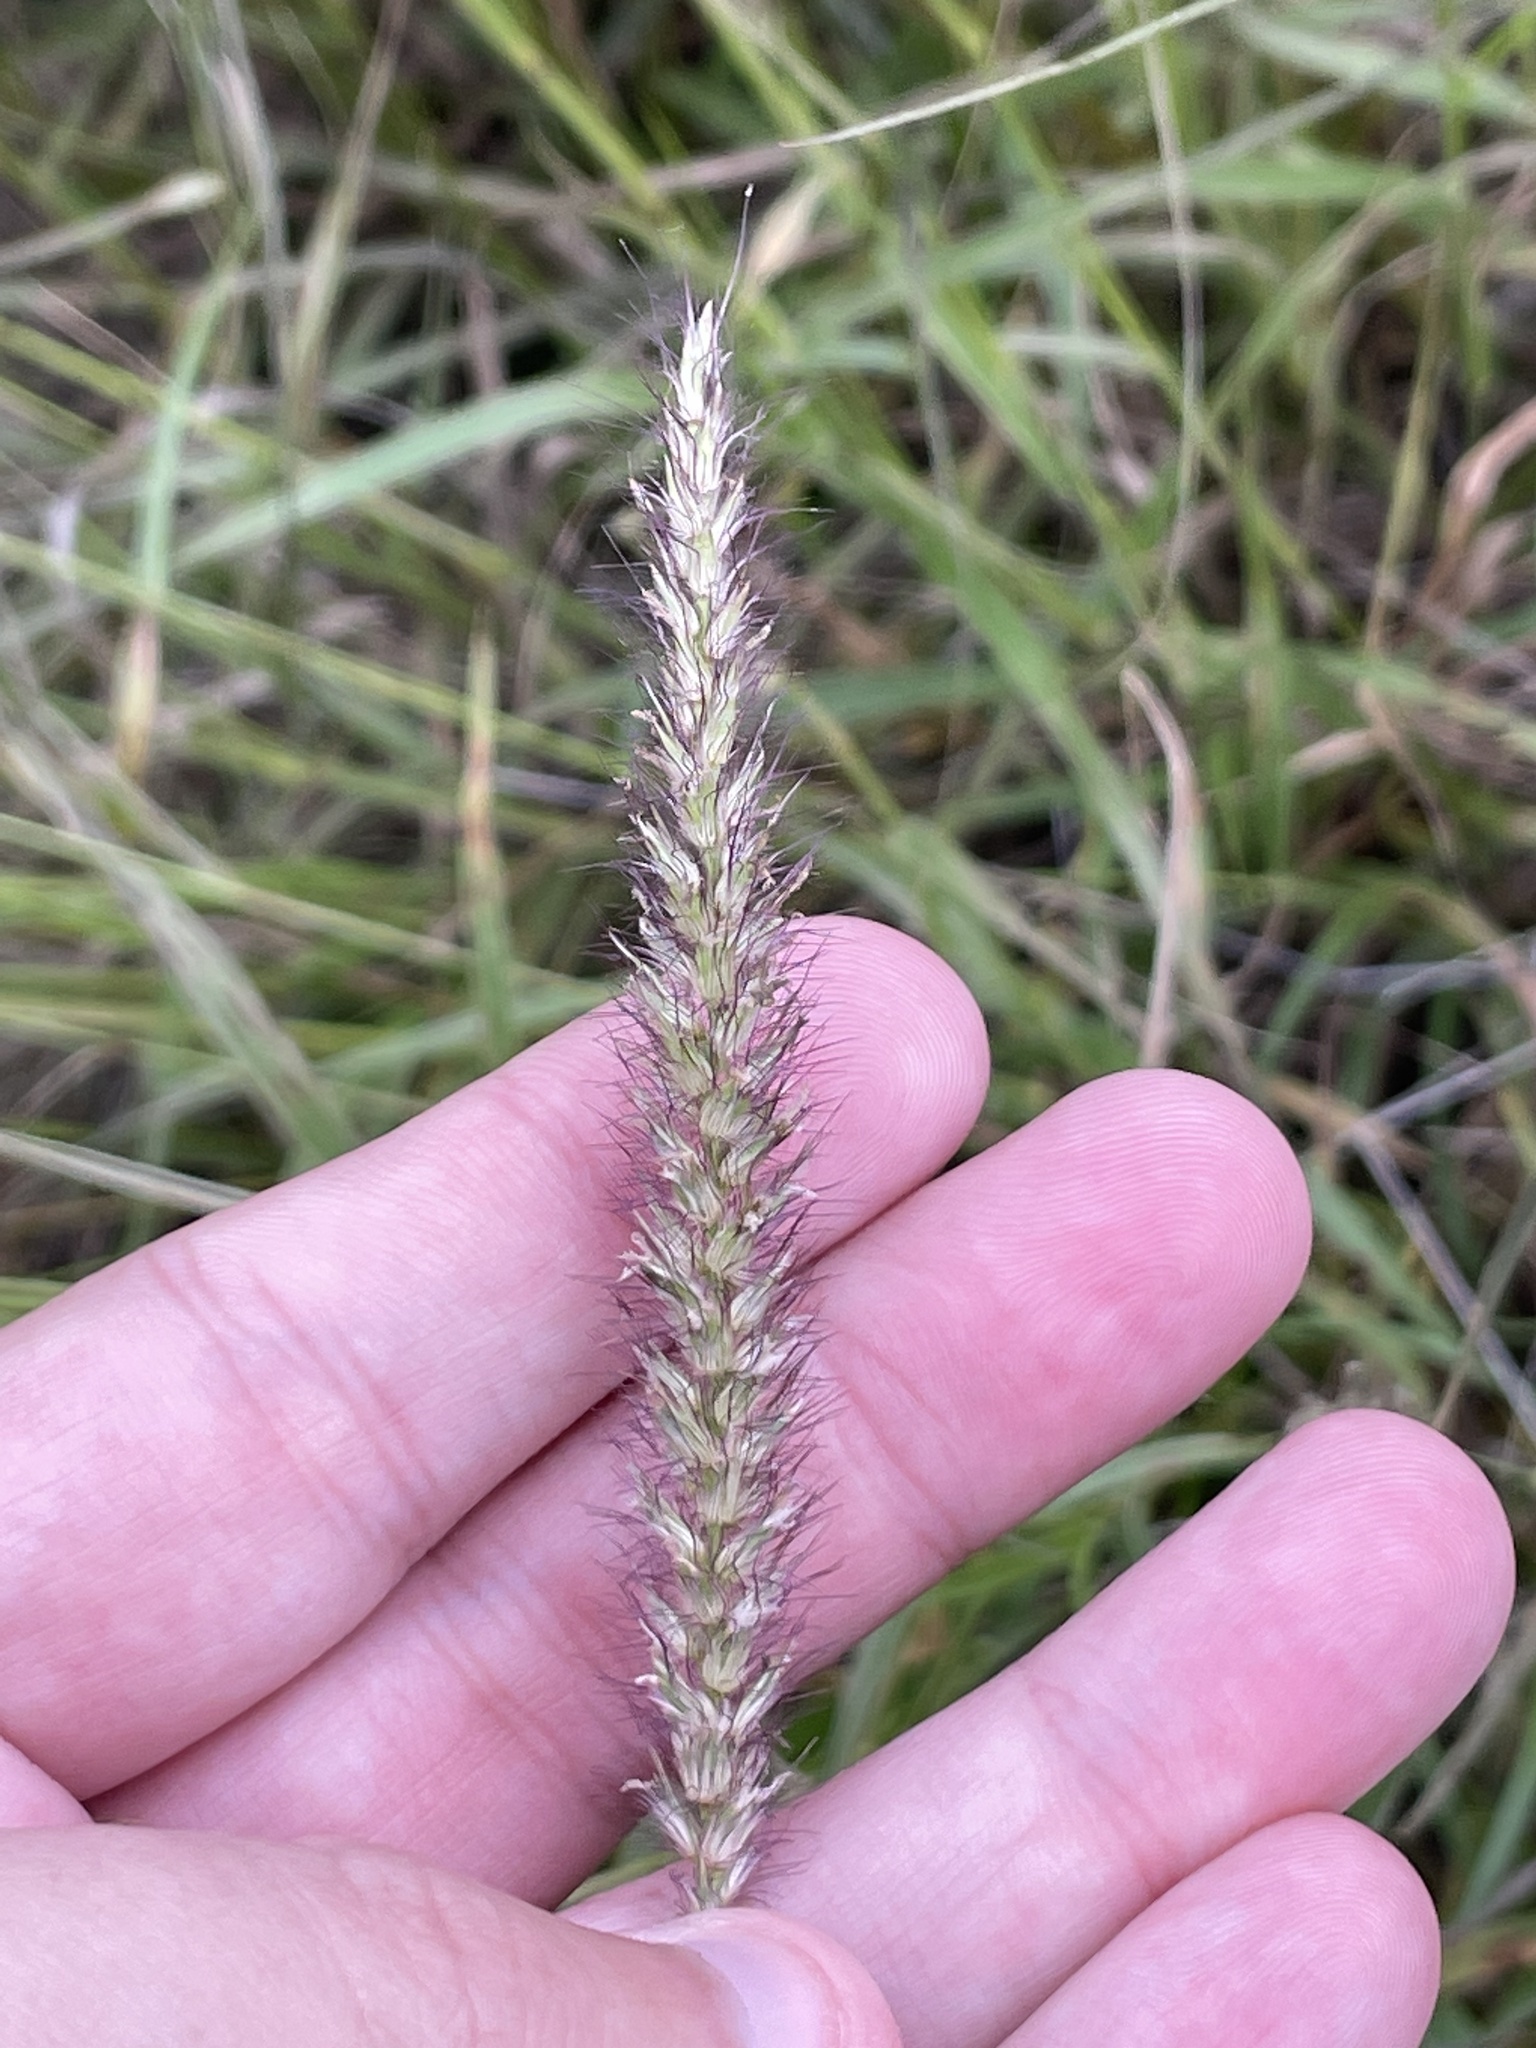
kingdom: Plantae
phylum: Tracheophyta
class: Liliopsida
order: Poales
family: Poaceae
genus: Cenchrus
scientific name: Cenchrus ciliaris
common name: Buffelgrass
